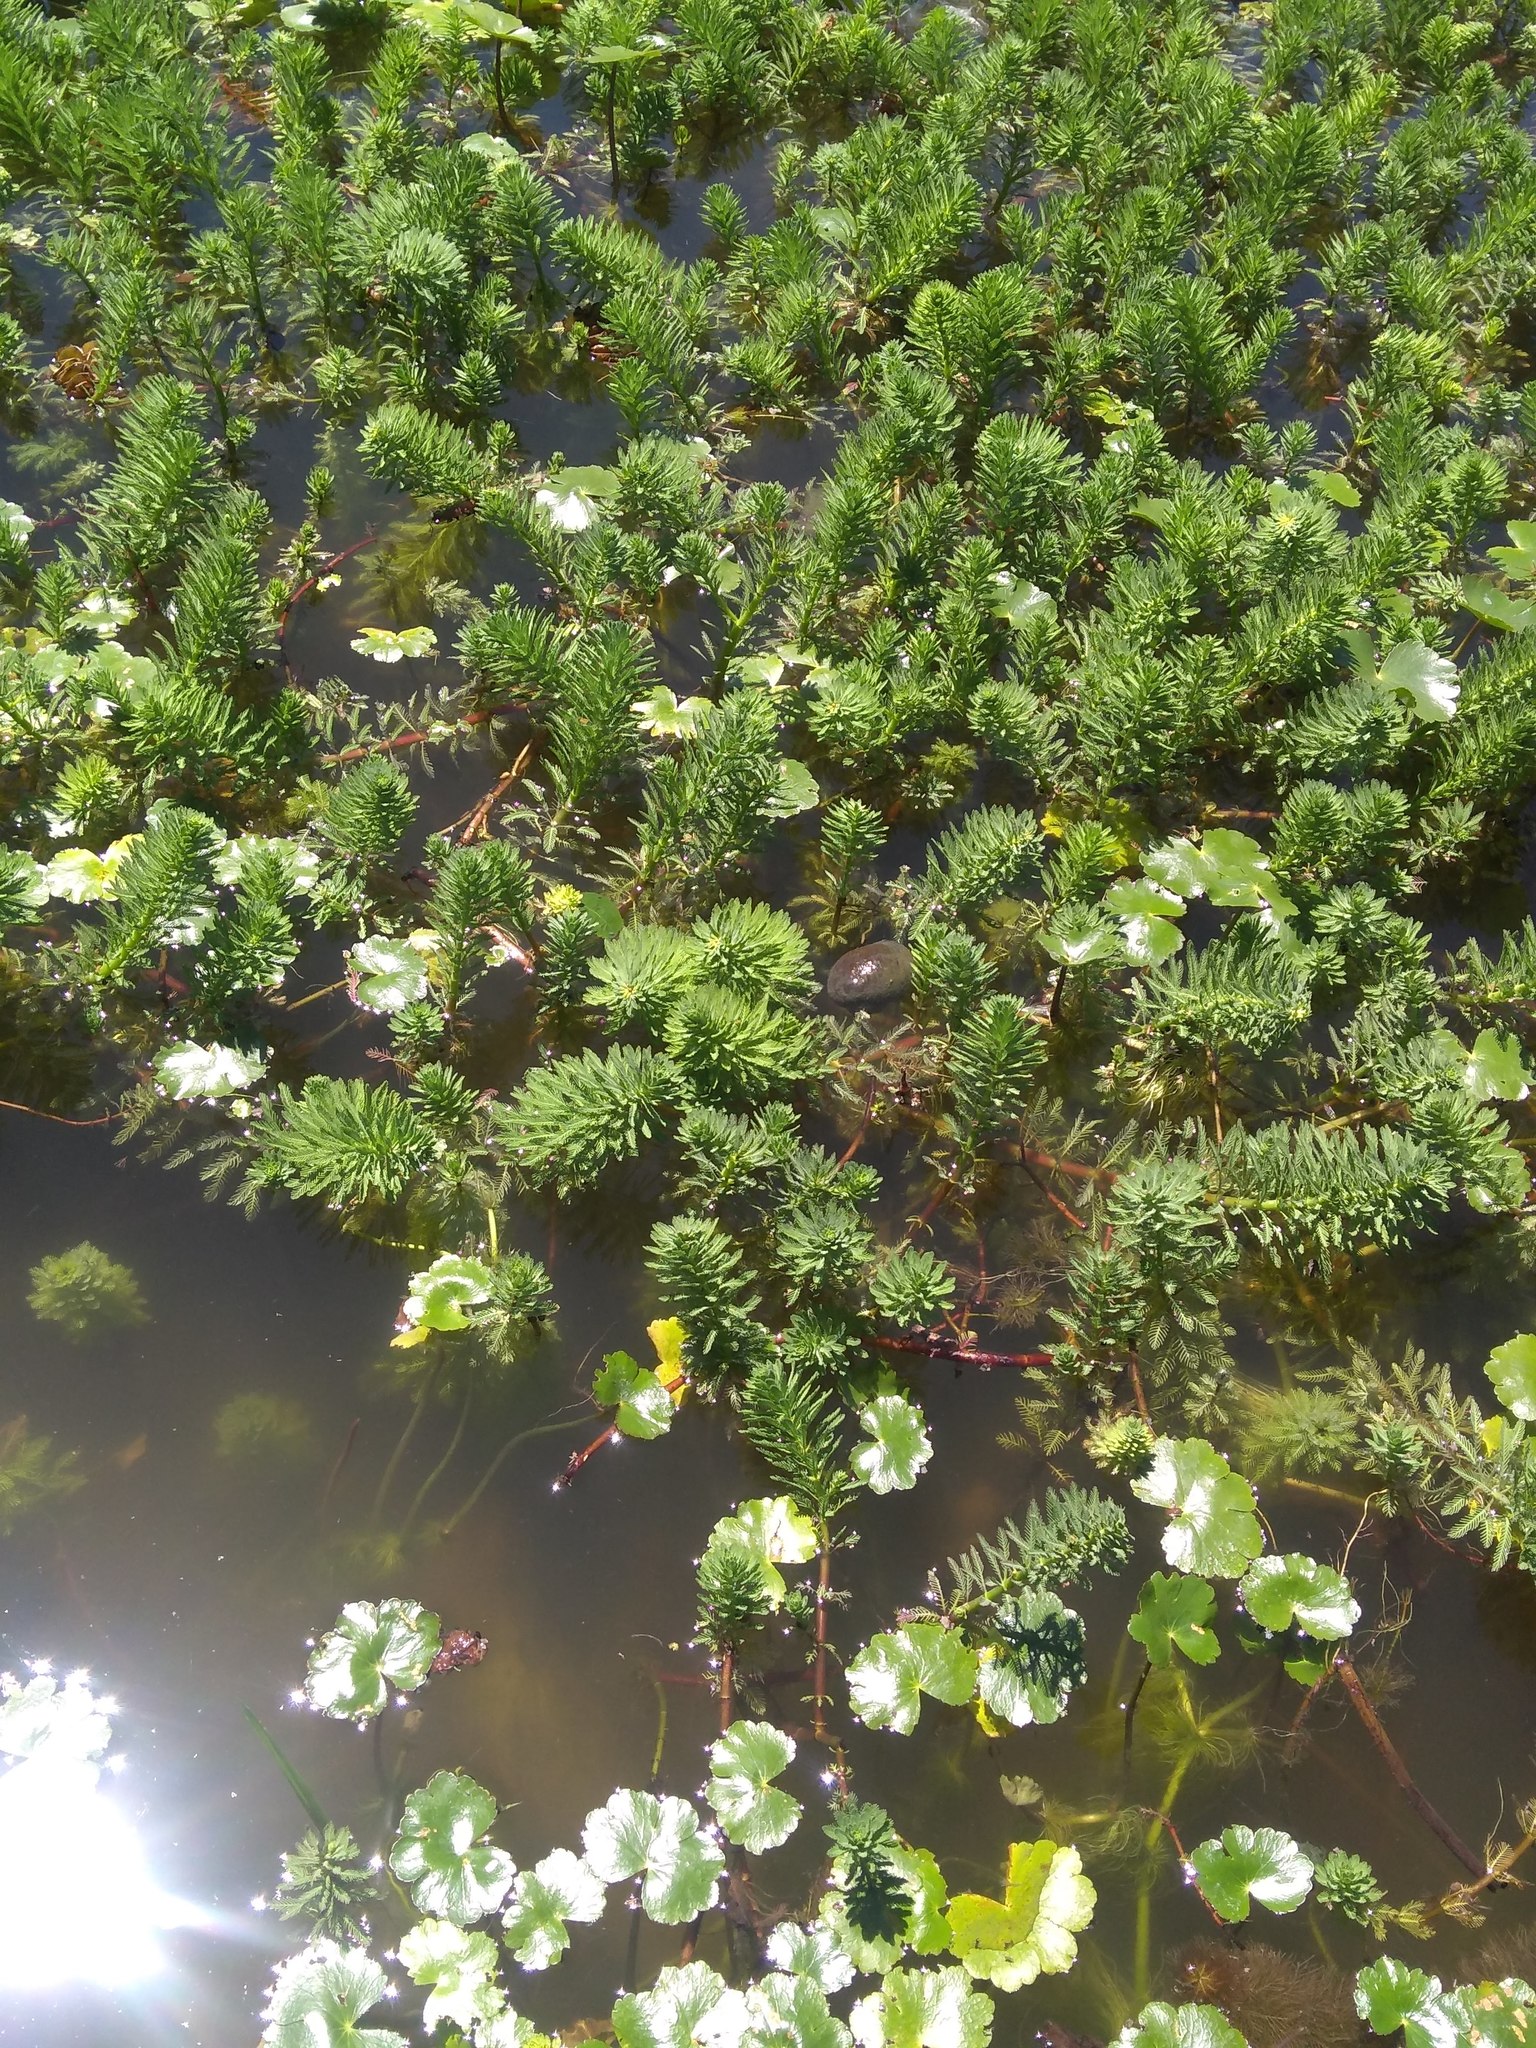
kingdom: Plantae
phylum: Tracheophyta
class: Magnoliopsida
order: Saxifragales
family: Haloragaceae
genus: Myriophyllum
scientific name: Myriophyllum aquaticum
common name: Parrot's feather
